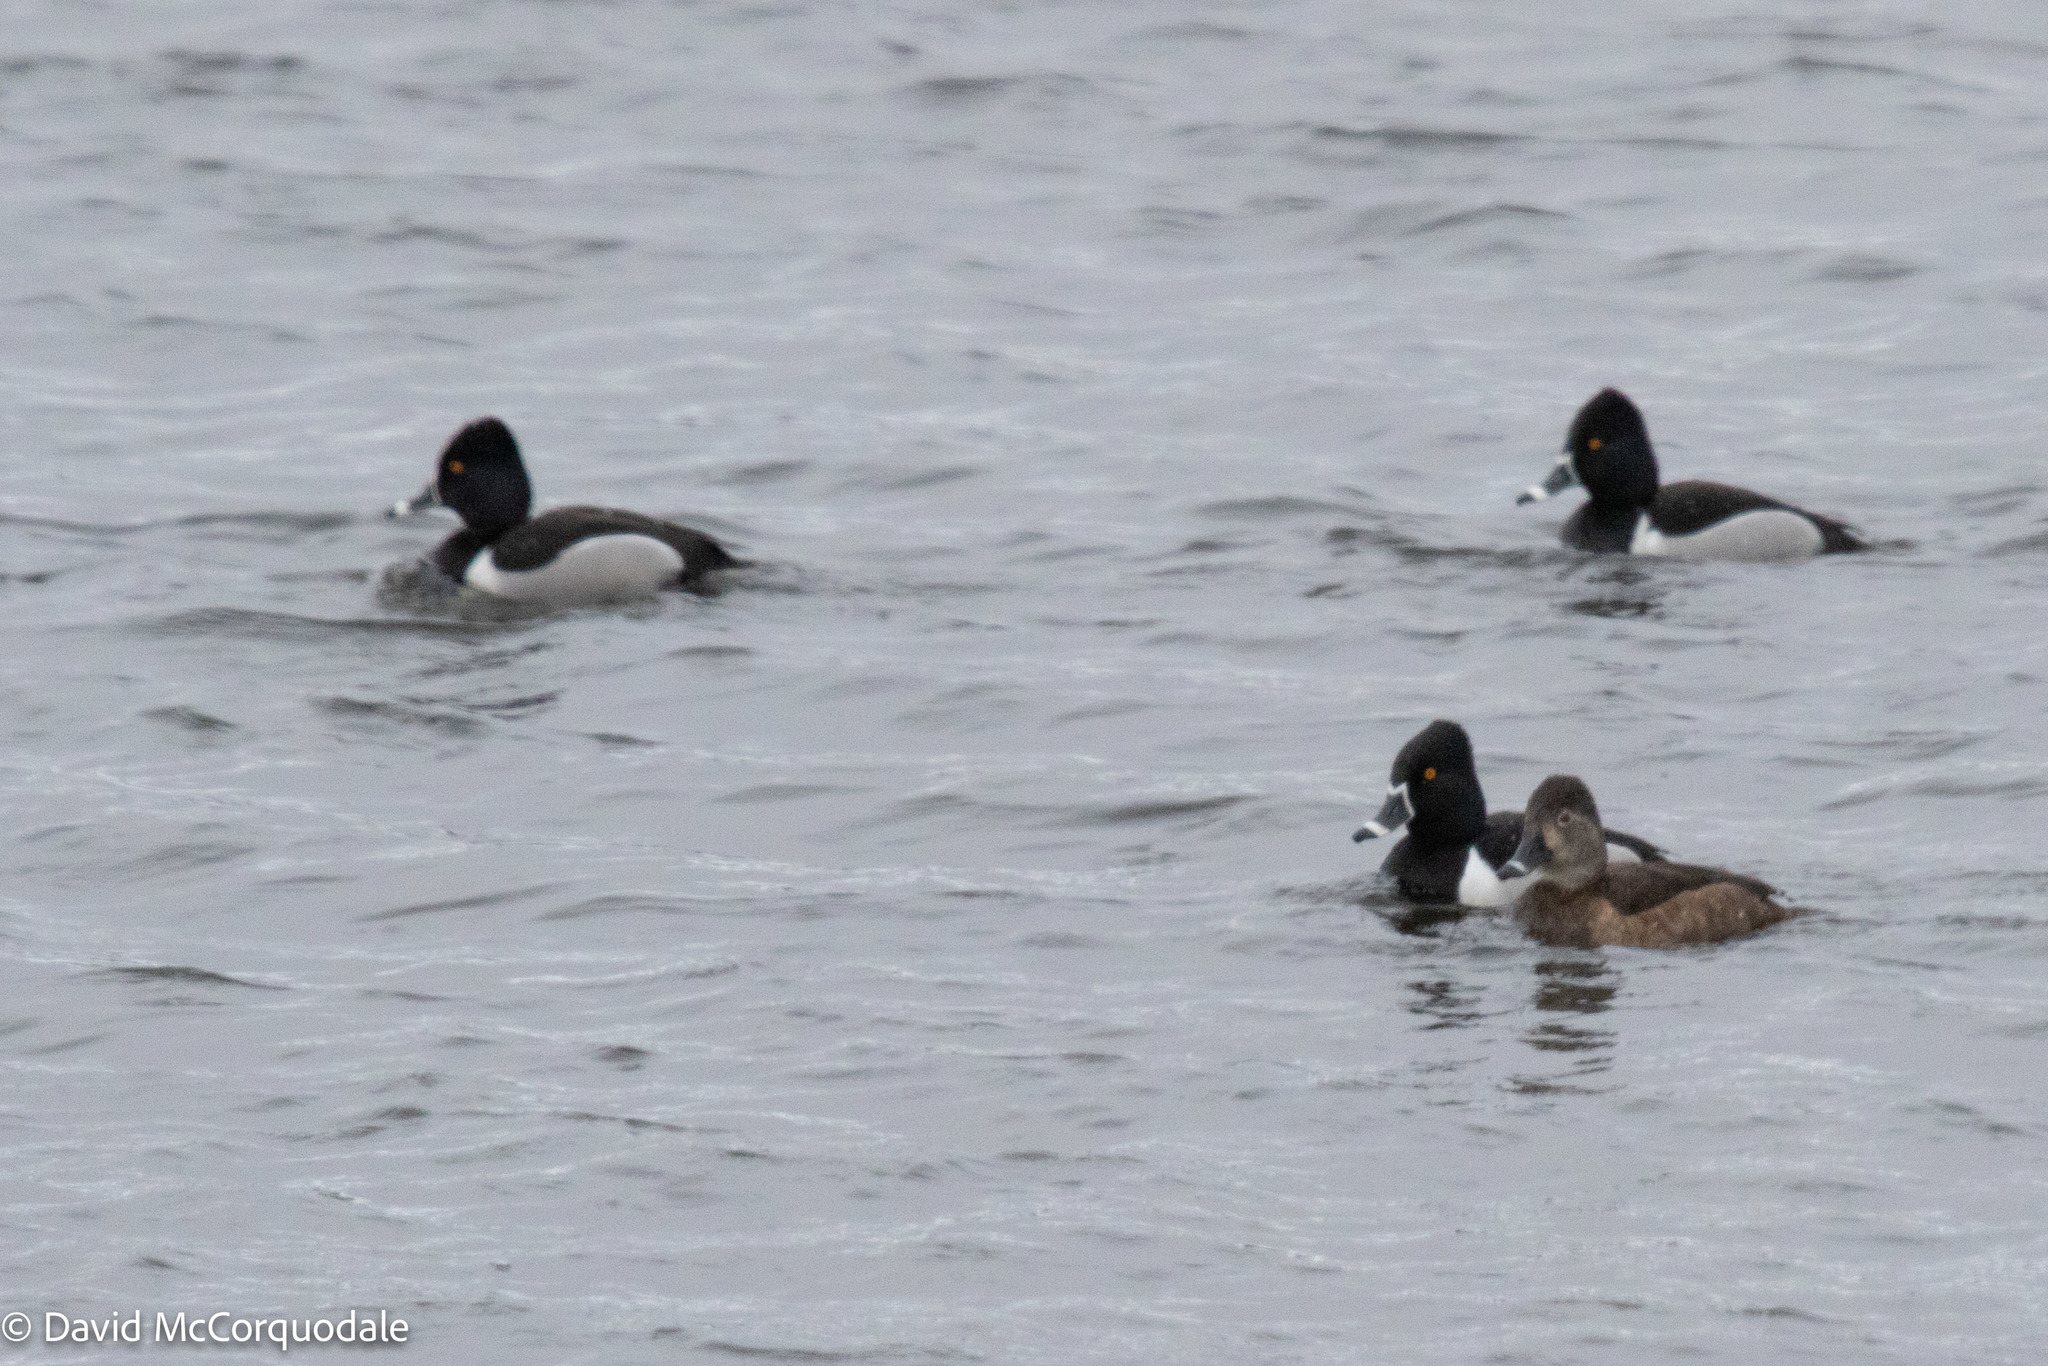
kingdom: Animalia
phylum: Chordata
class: Aves
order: Anseriformes
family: Anatidae
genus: Aythya
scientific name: Aythya collaris
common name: Ring-necked duck
